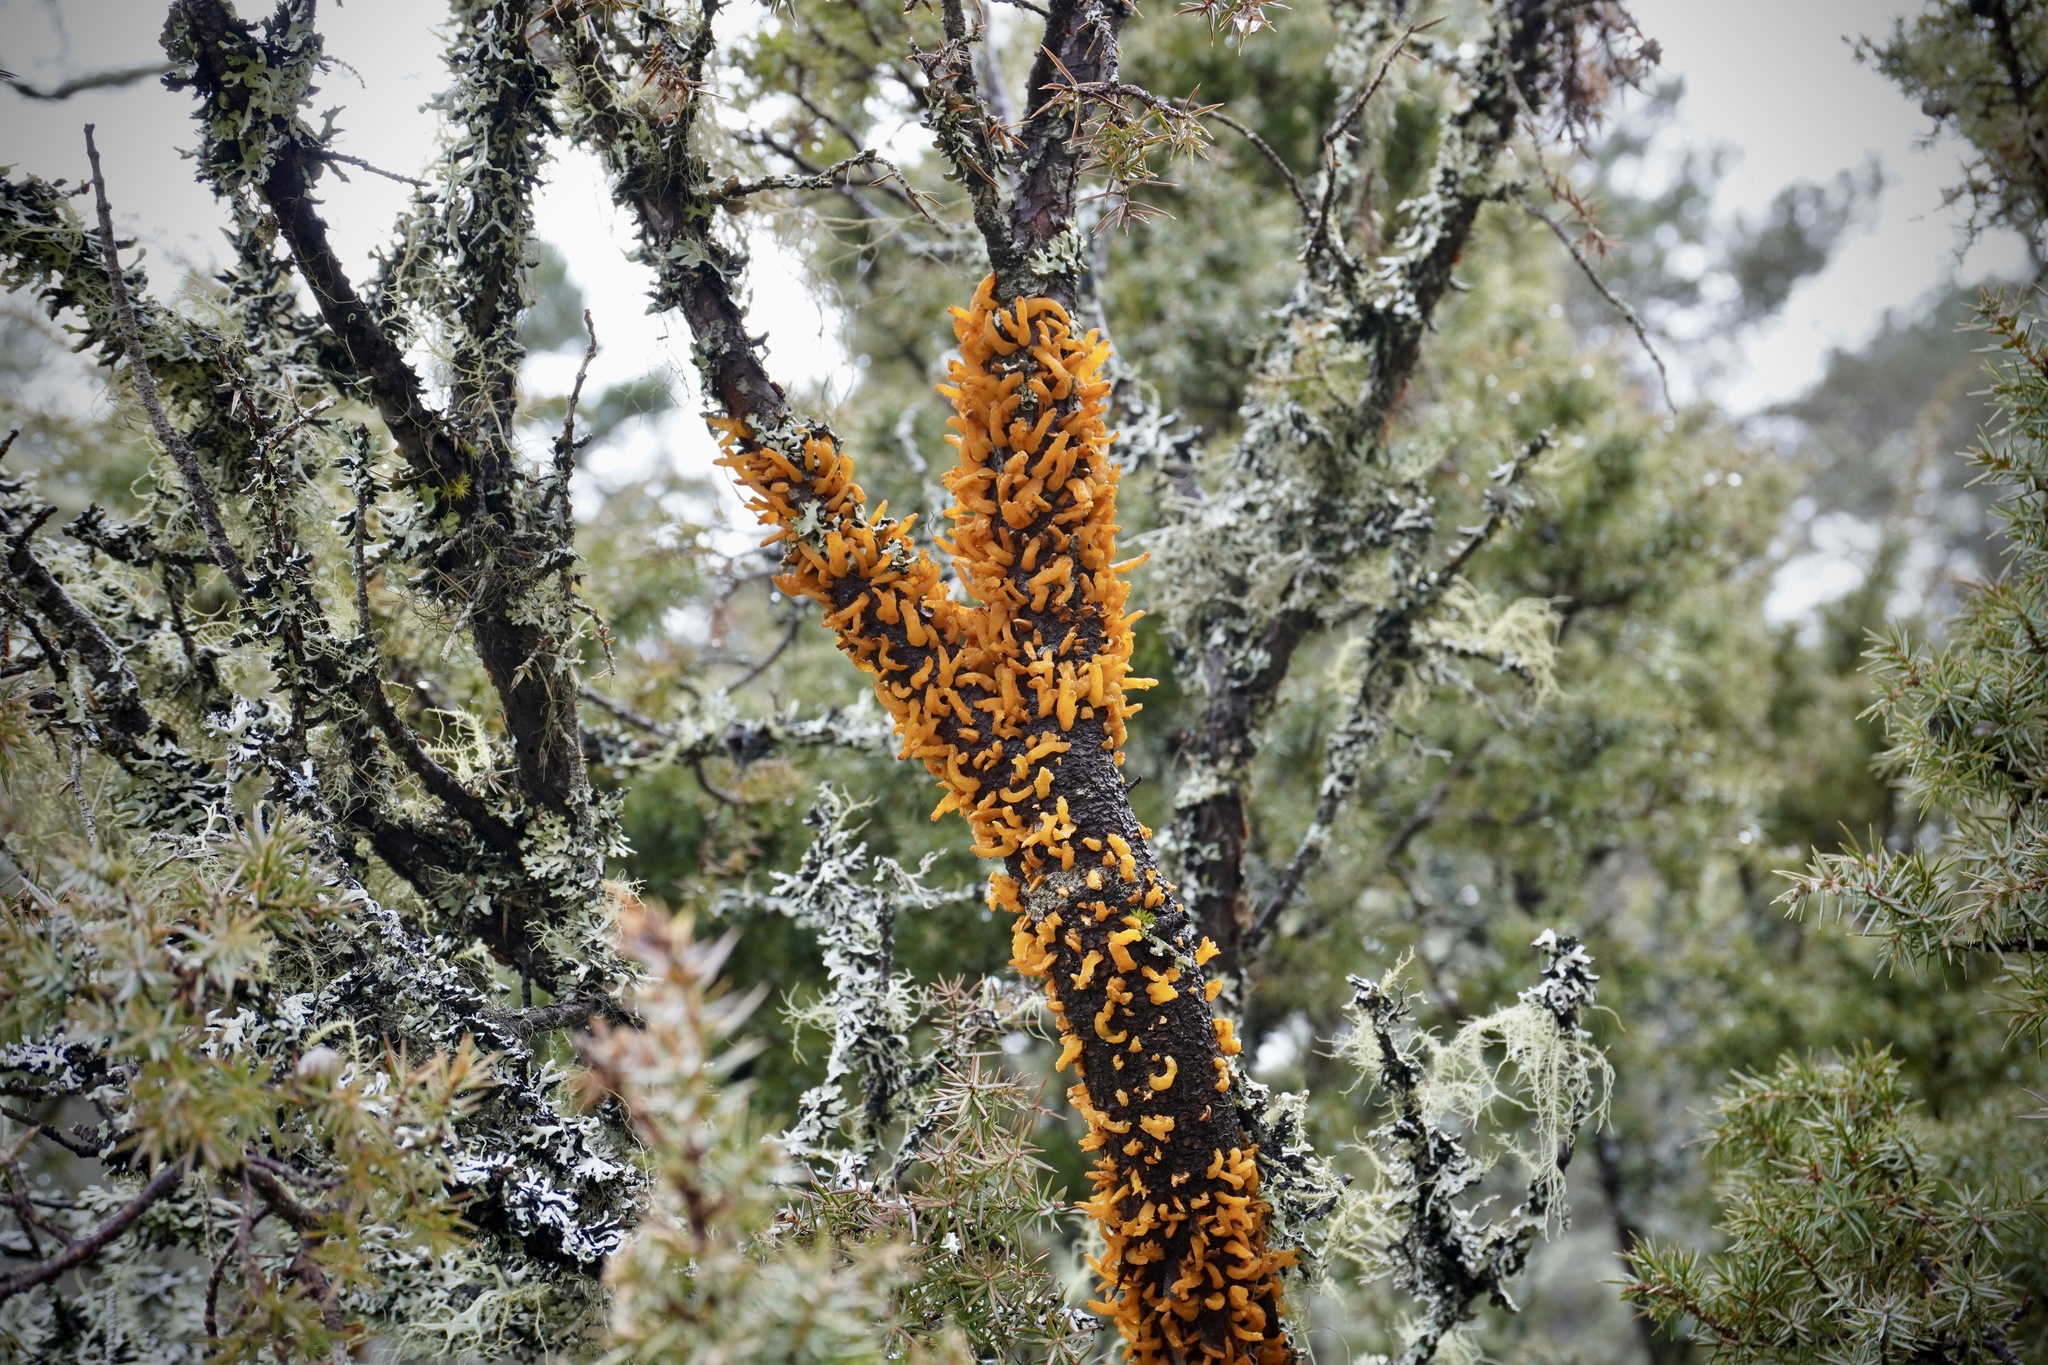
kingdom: Fungi
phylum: Basidiomycota
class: Pucciniomycetes
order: Pucciniales
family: Gymnosporangiaceae
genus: Gymnosporangium
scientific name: Gymnosporangium clavariiforme
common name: Tongues of fire
